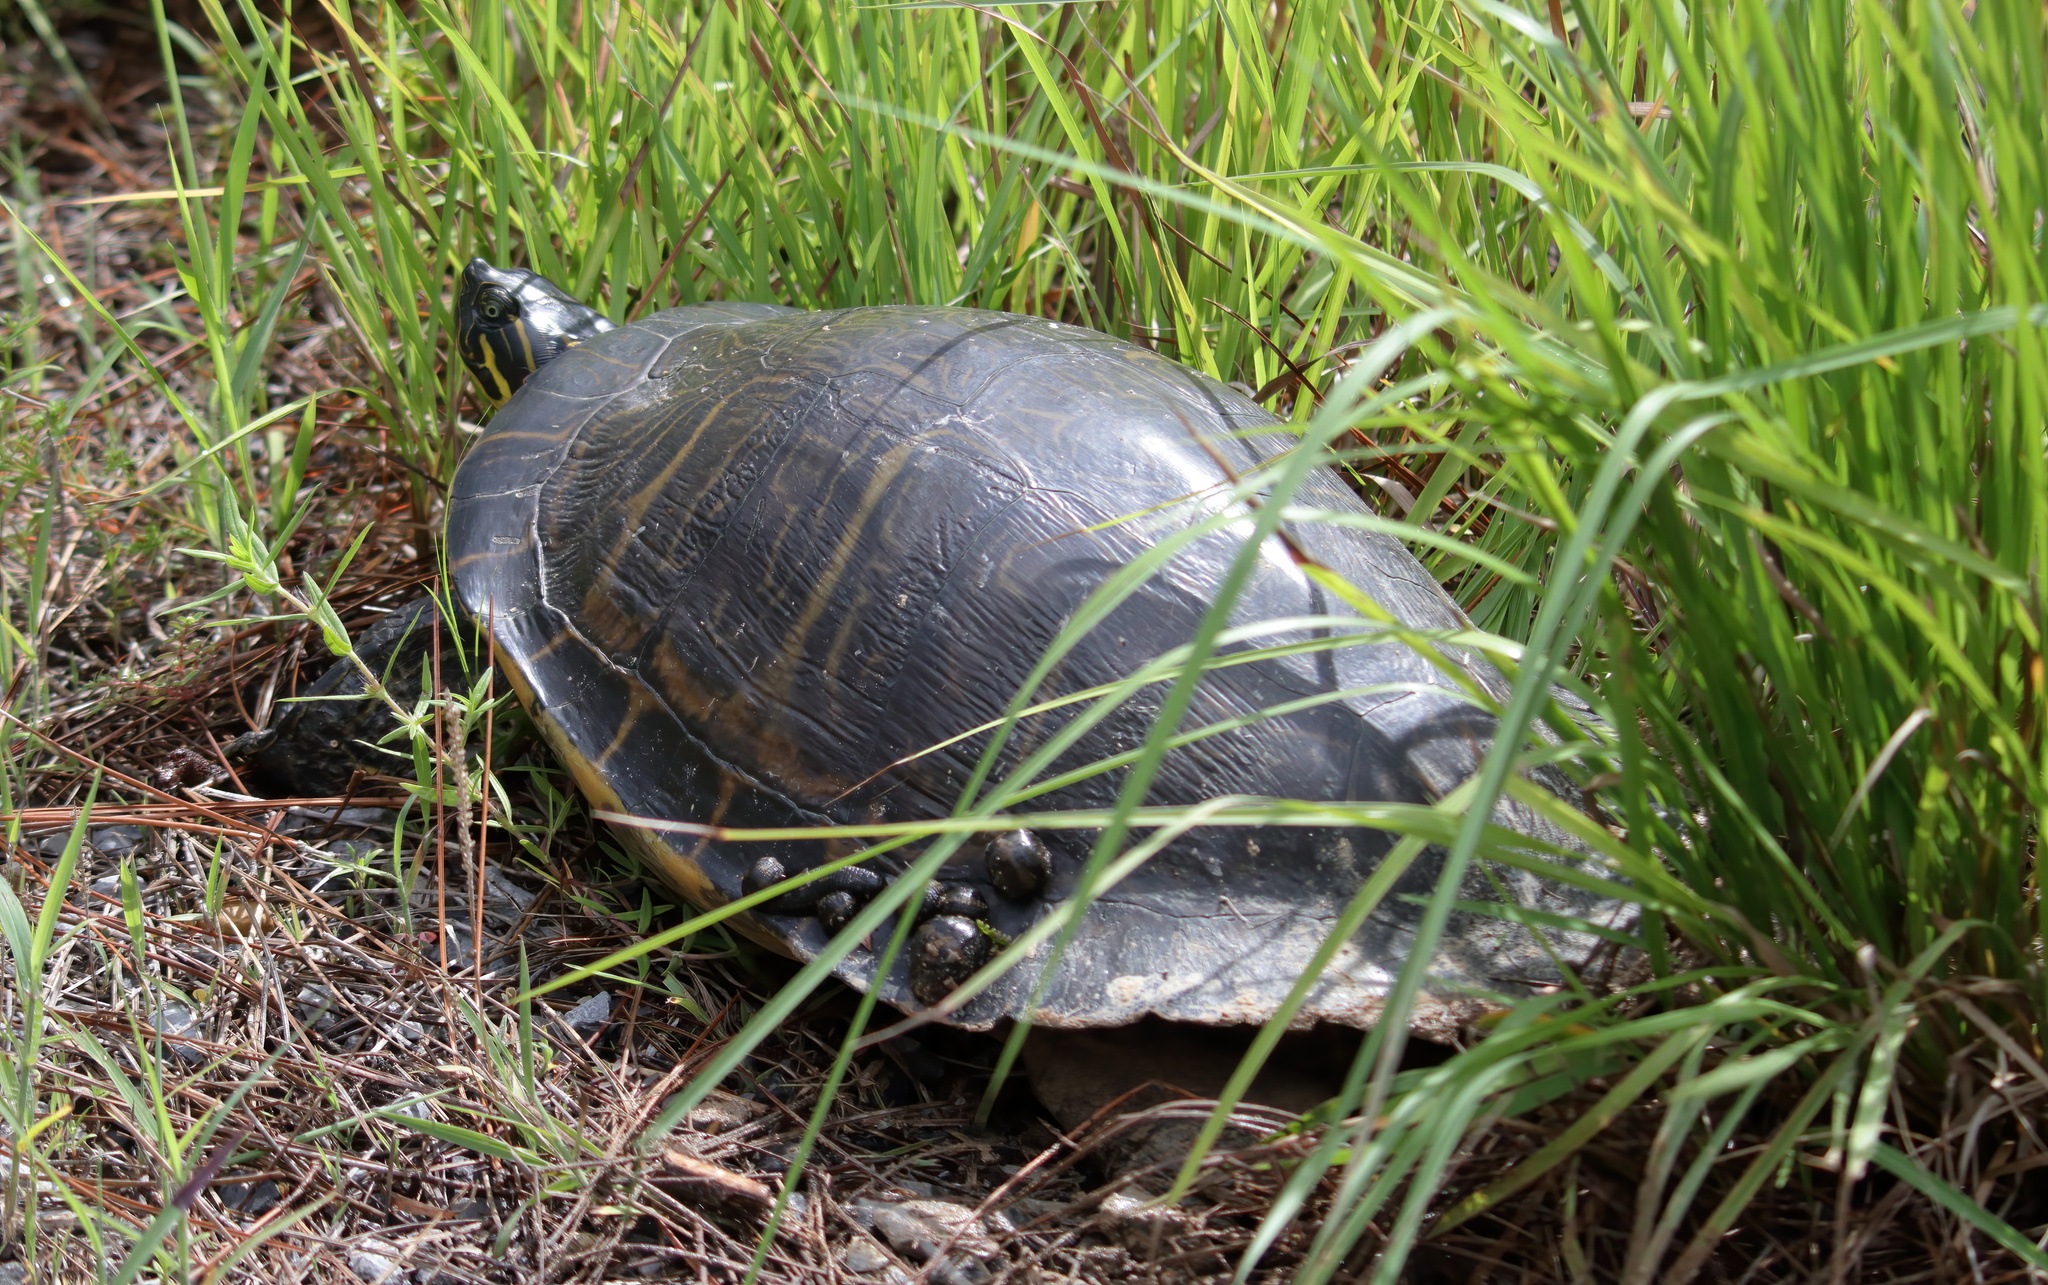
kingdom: Animalia
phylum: Chordata
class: Testudines
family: Emydidae
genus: Pseudemys
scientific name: Pseudemys concinna
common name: Eastern river cooter
